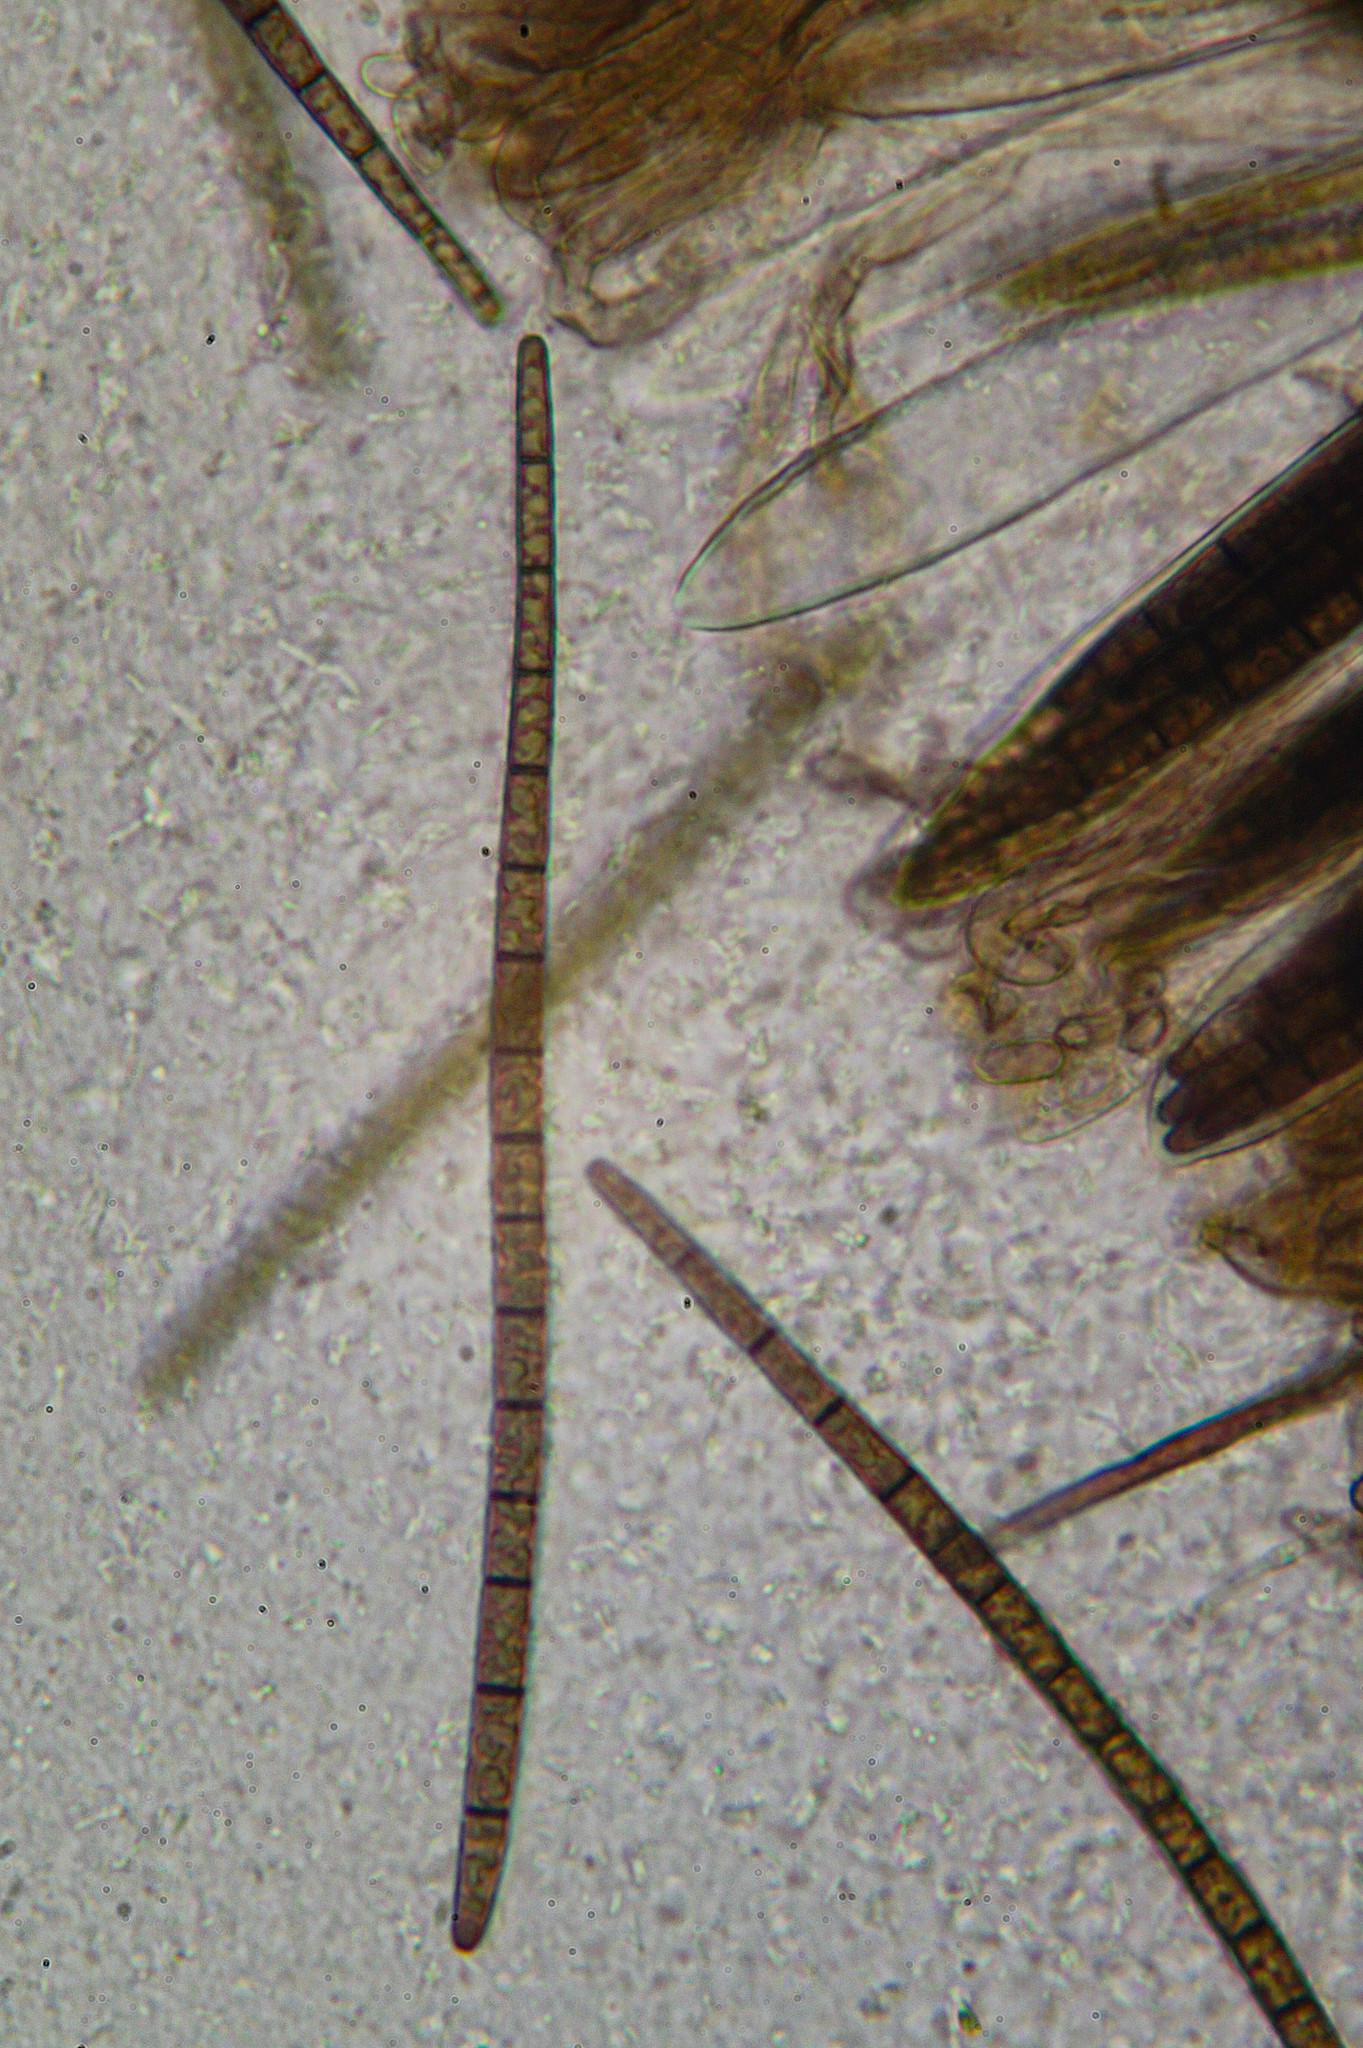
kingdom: Fungi
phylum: Ascomycota
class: Geoglossomycetes
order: Geoglossales
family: Geoglossaceae
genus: Trichoglossum
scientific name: Trichoglossum hirsutum
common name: Hairy earthtongue
